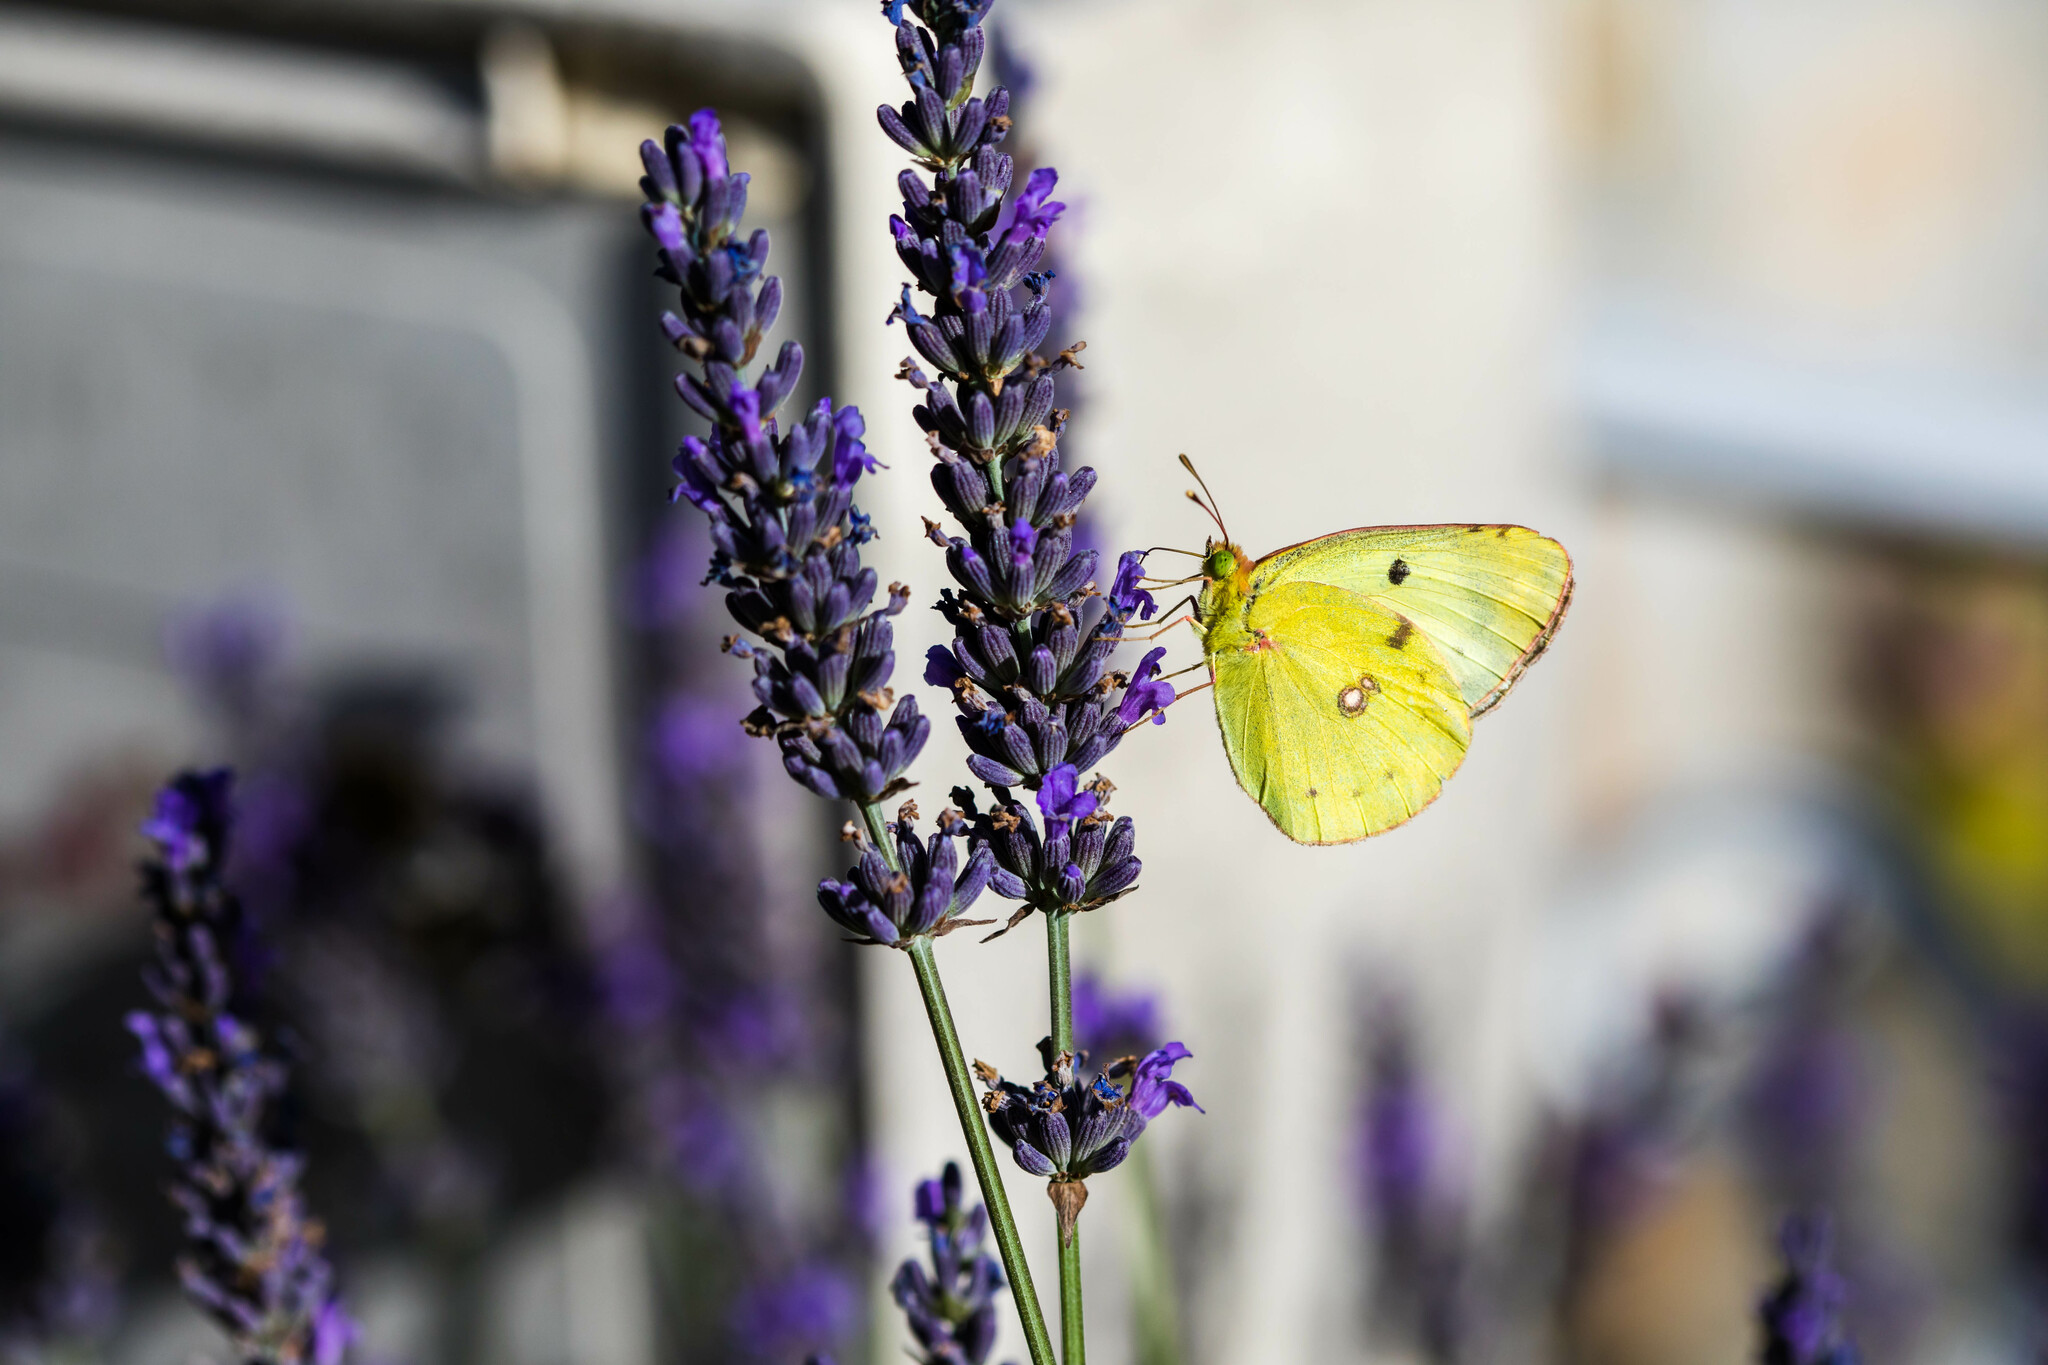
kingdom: Animalia
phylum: Arthropoda
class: Insecta
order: Lepidoptera
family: Pieridae
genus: Colias
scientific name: Colias alfacariensis
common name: Berger's clouded yellow
